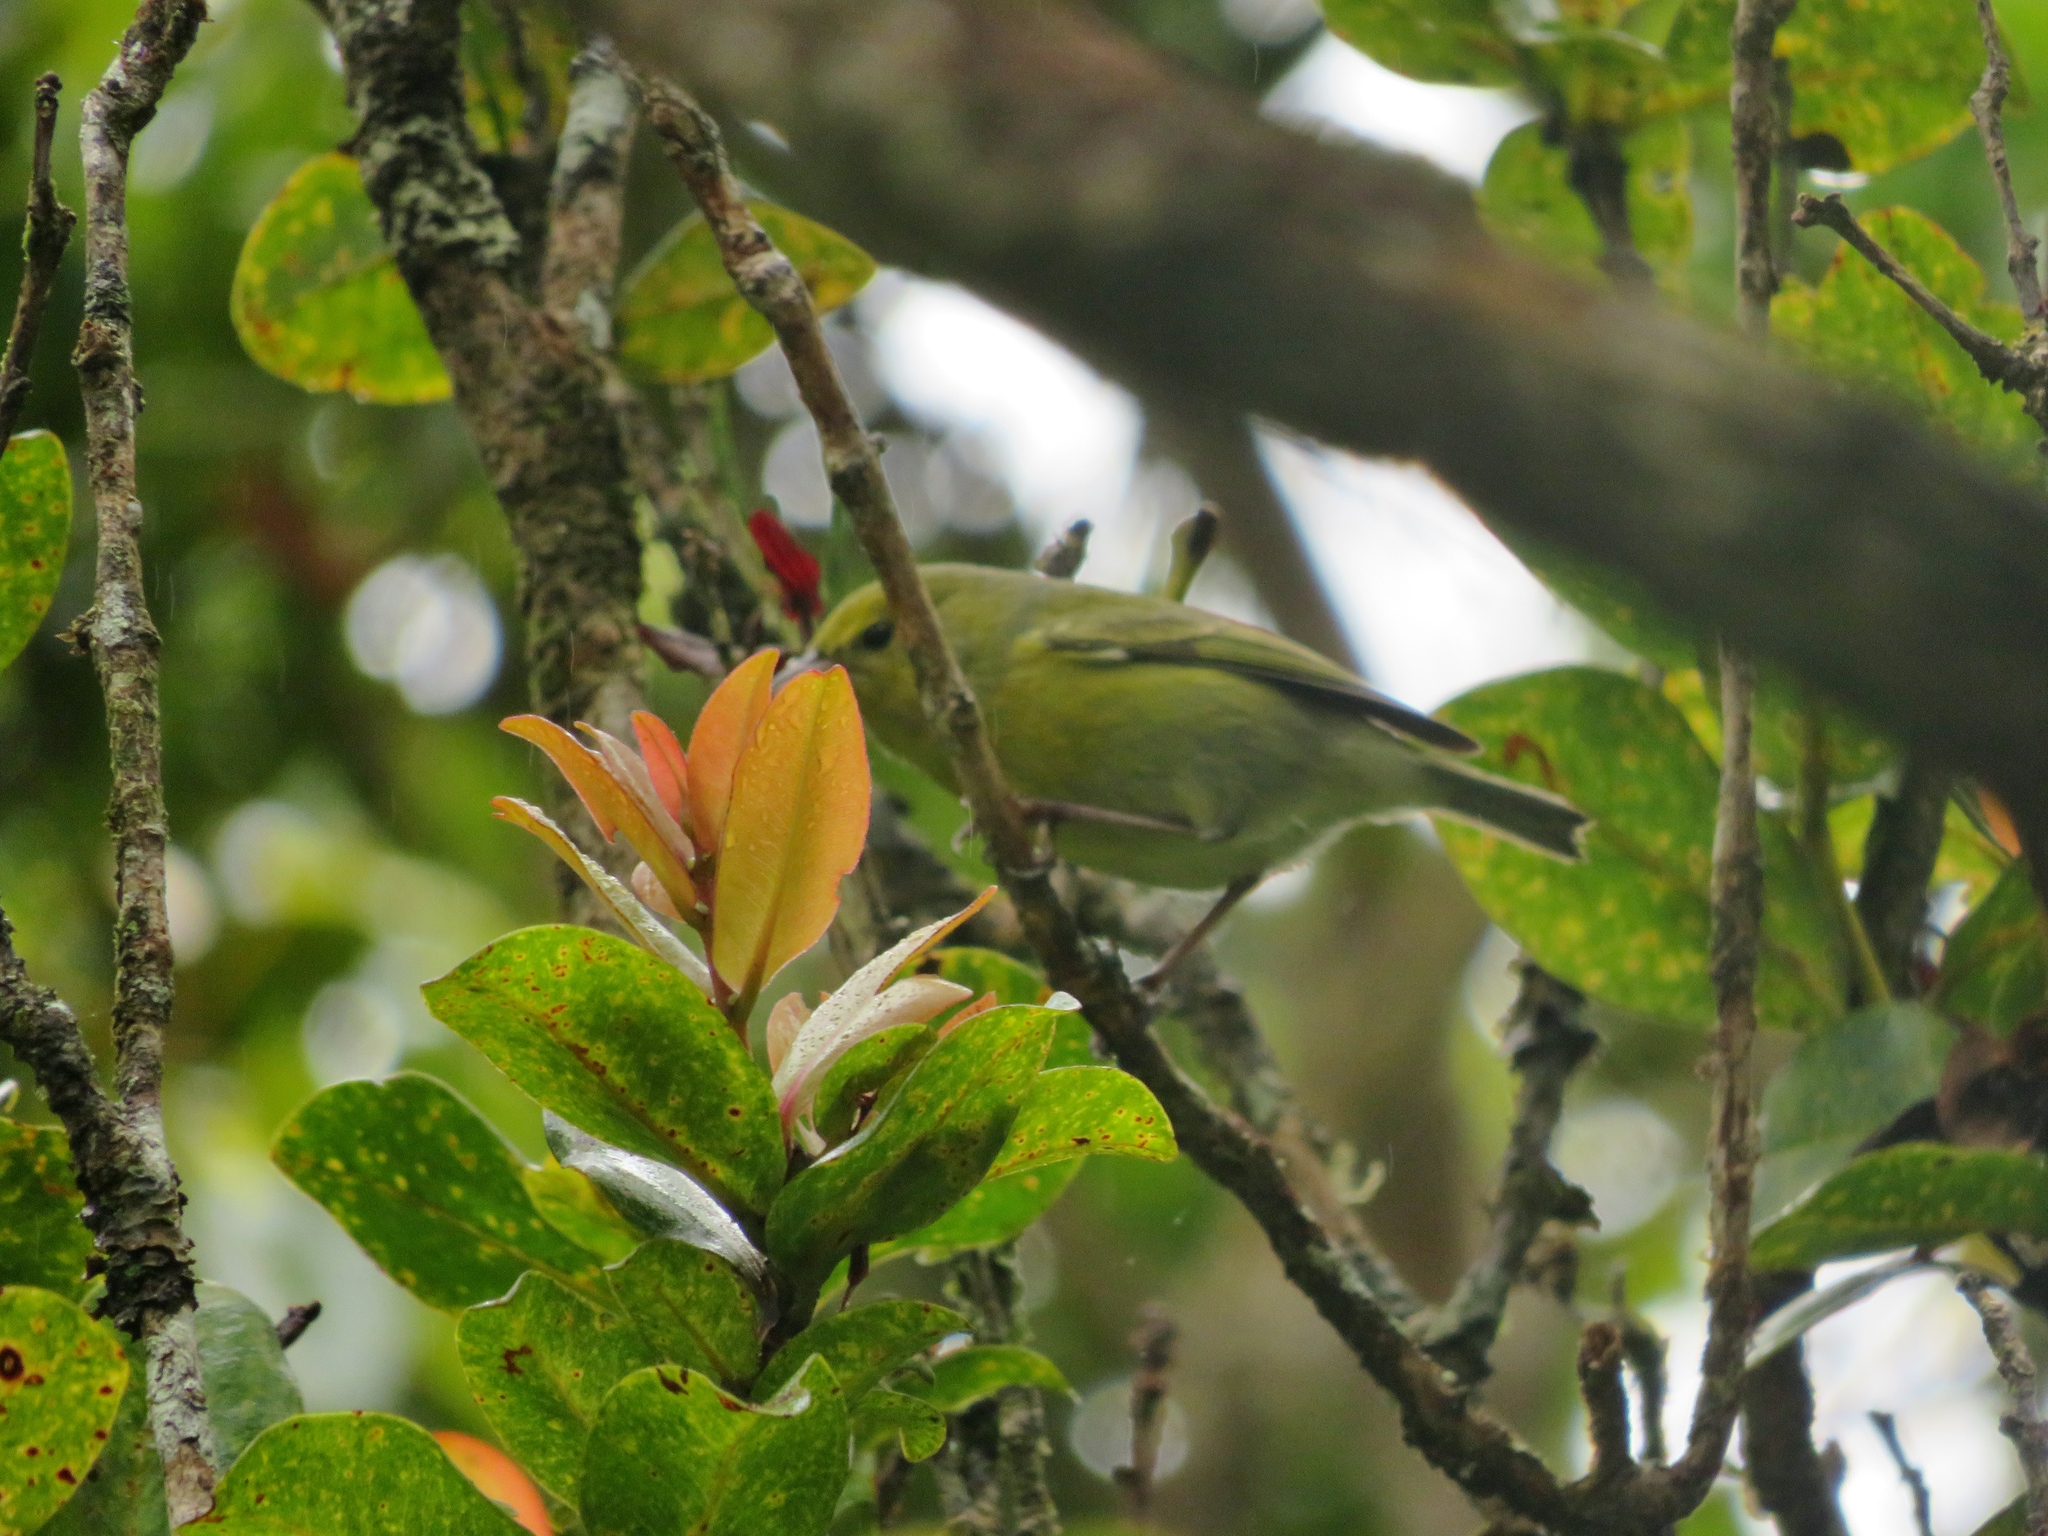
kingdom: Animalia
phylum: Chordata
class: Aves
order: Passeriformes
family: Fringillidae
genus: Magumma
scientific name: Magumma parva
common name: Anianiau
